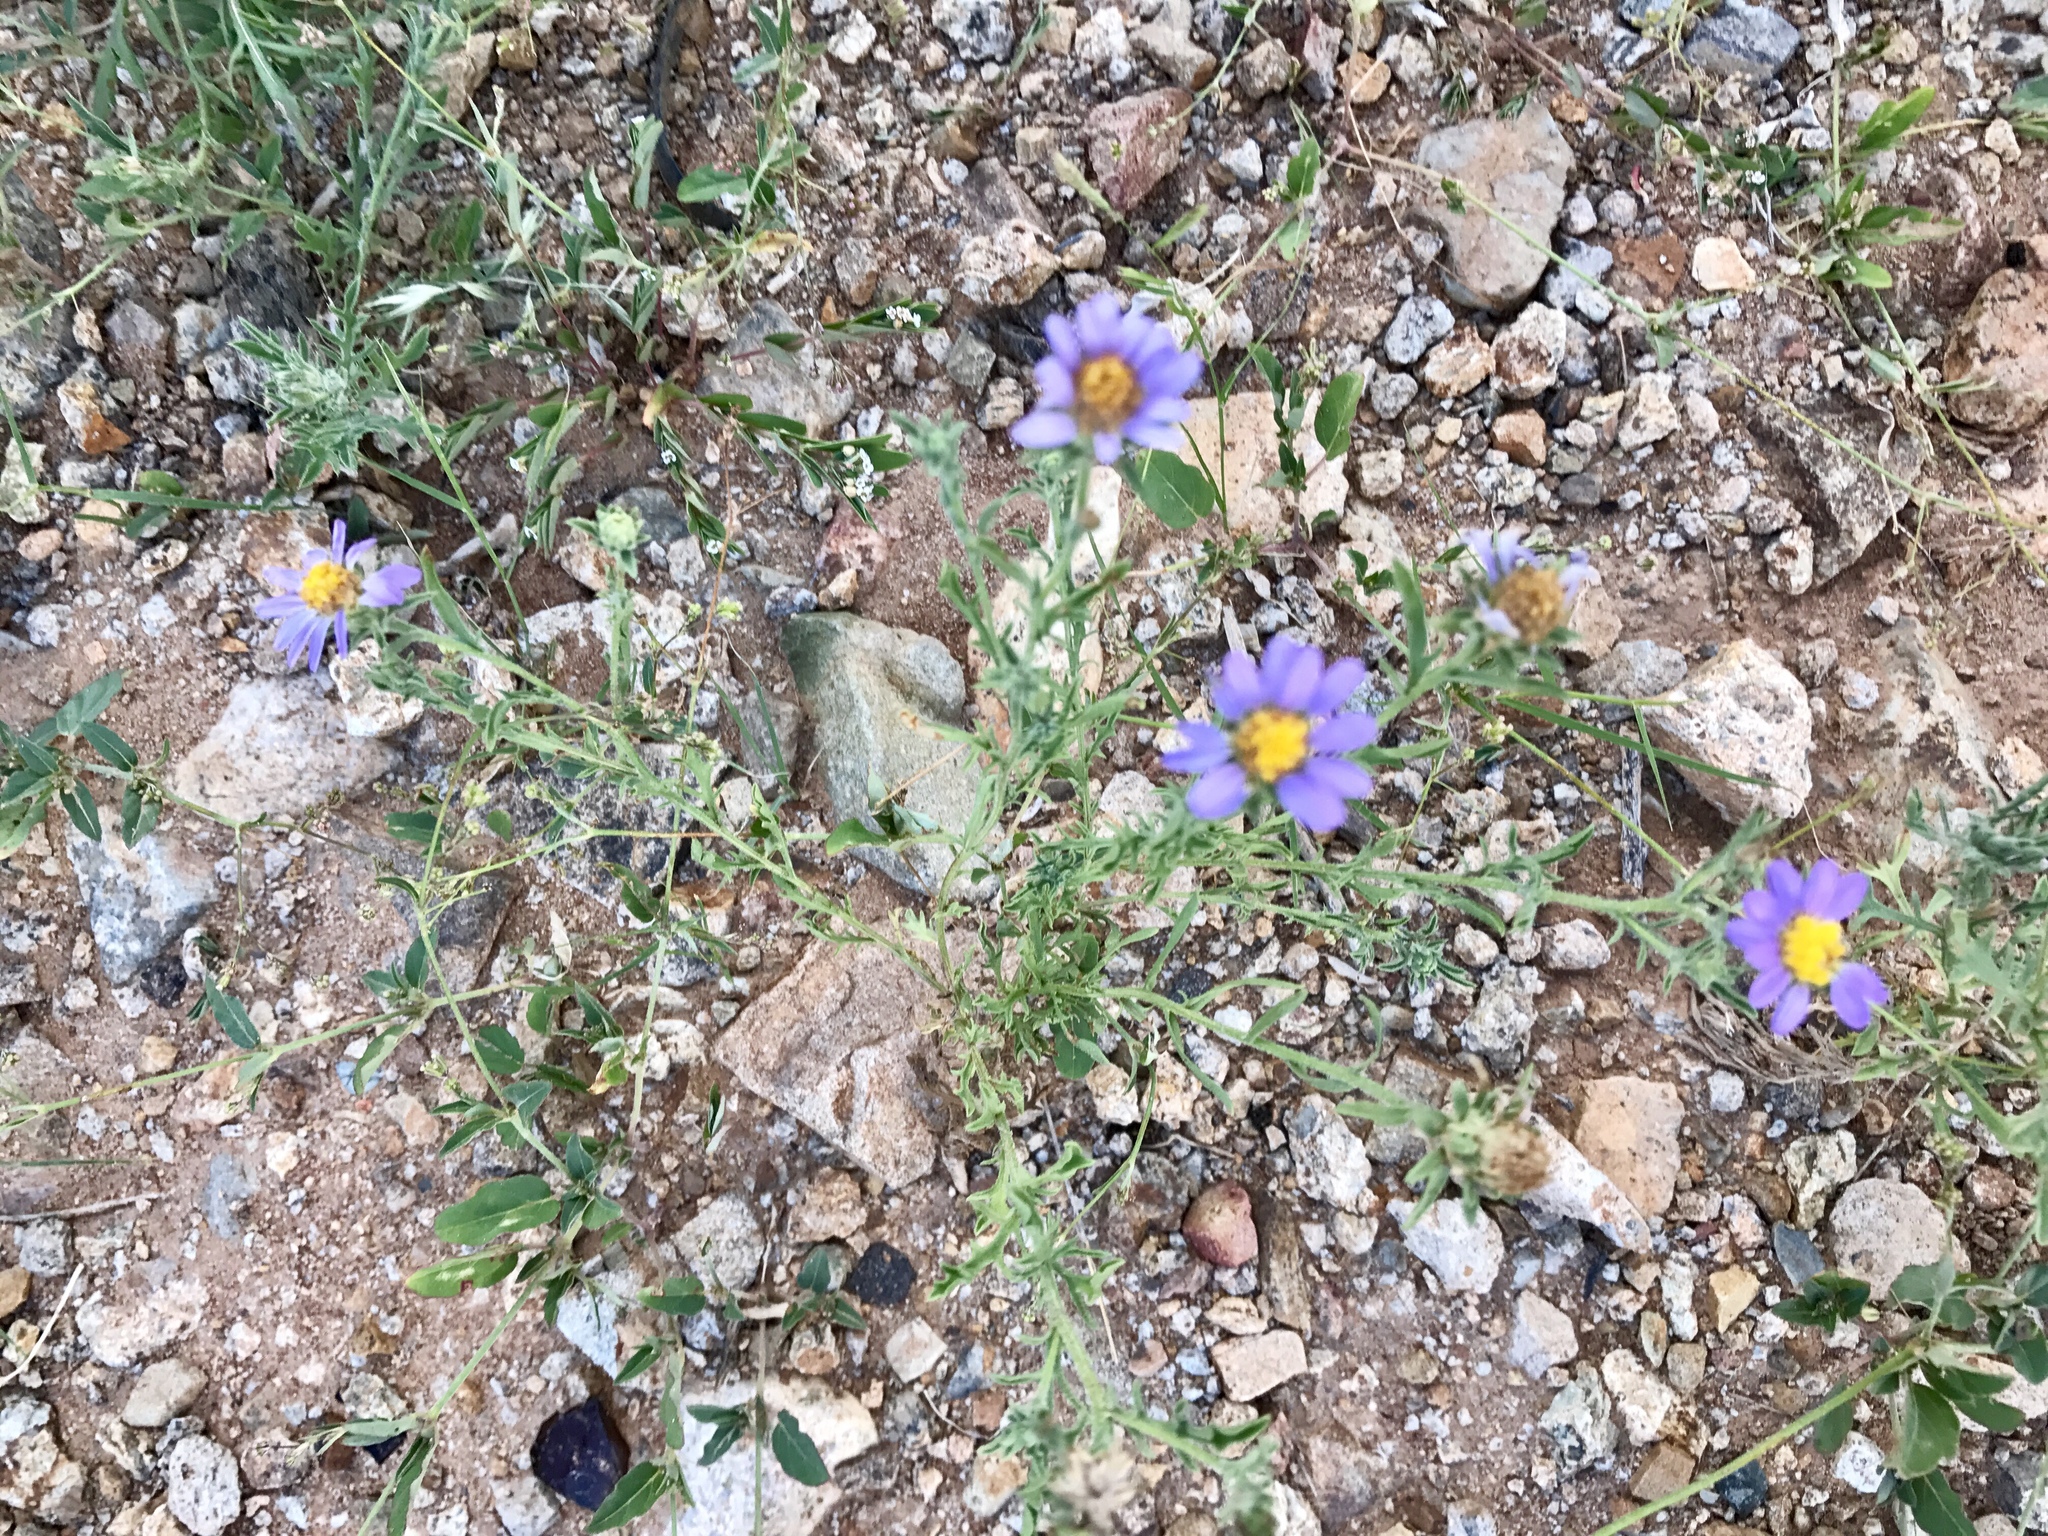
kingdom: Plantae
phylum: Tracheophyta
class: Magnoliopsida
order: Asterales
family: Asteraceae
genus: Machaeranthera
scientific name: Machaeranthera tagetina
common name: Mesa tansy-aster
